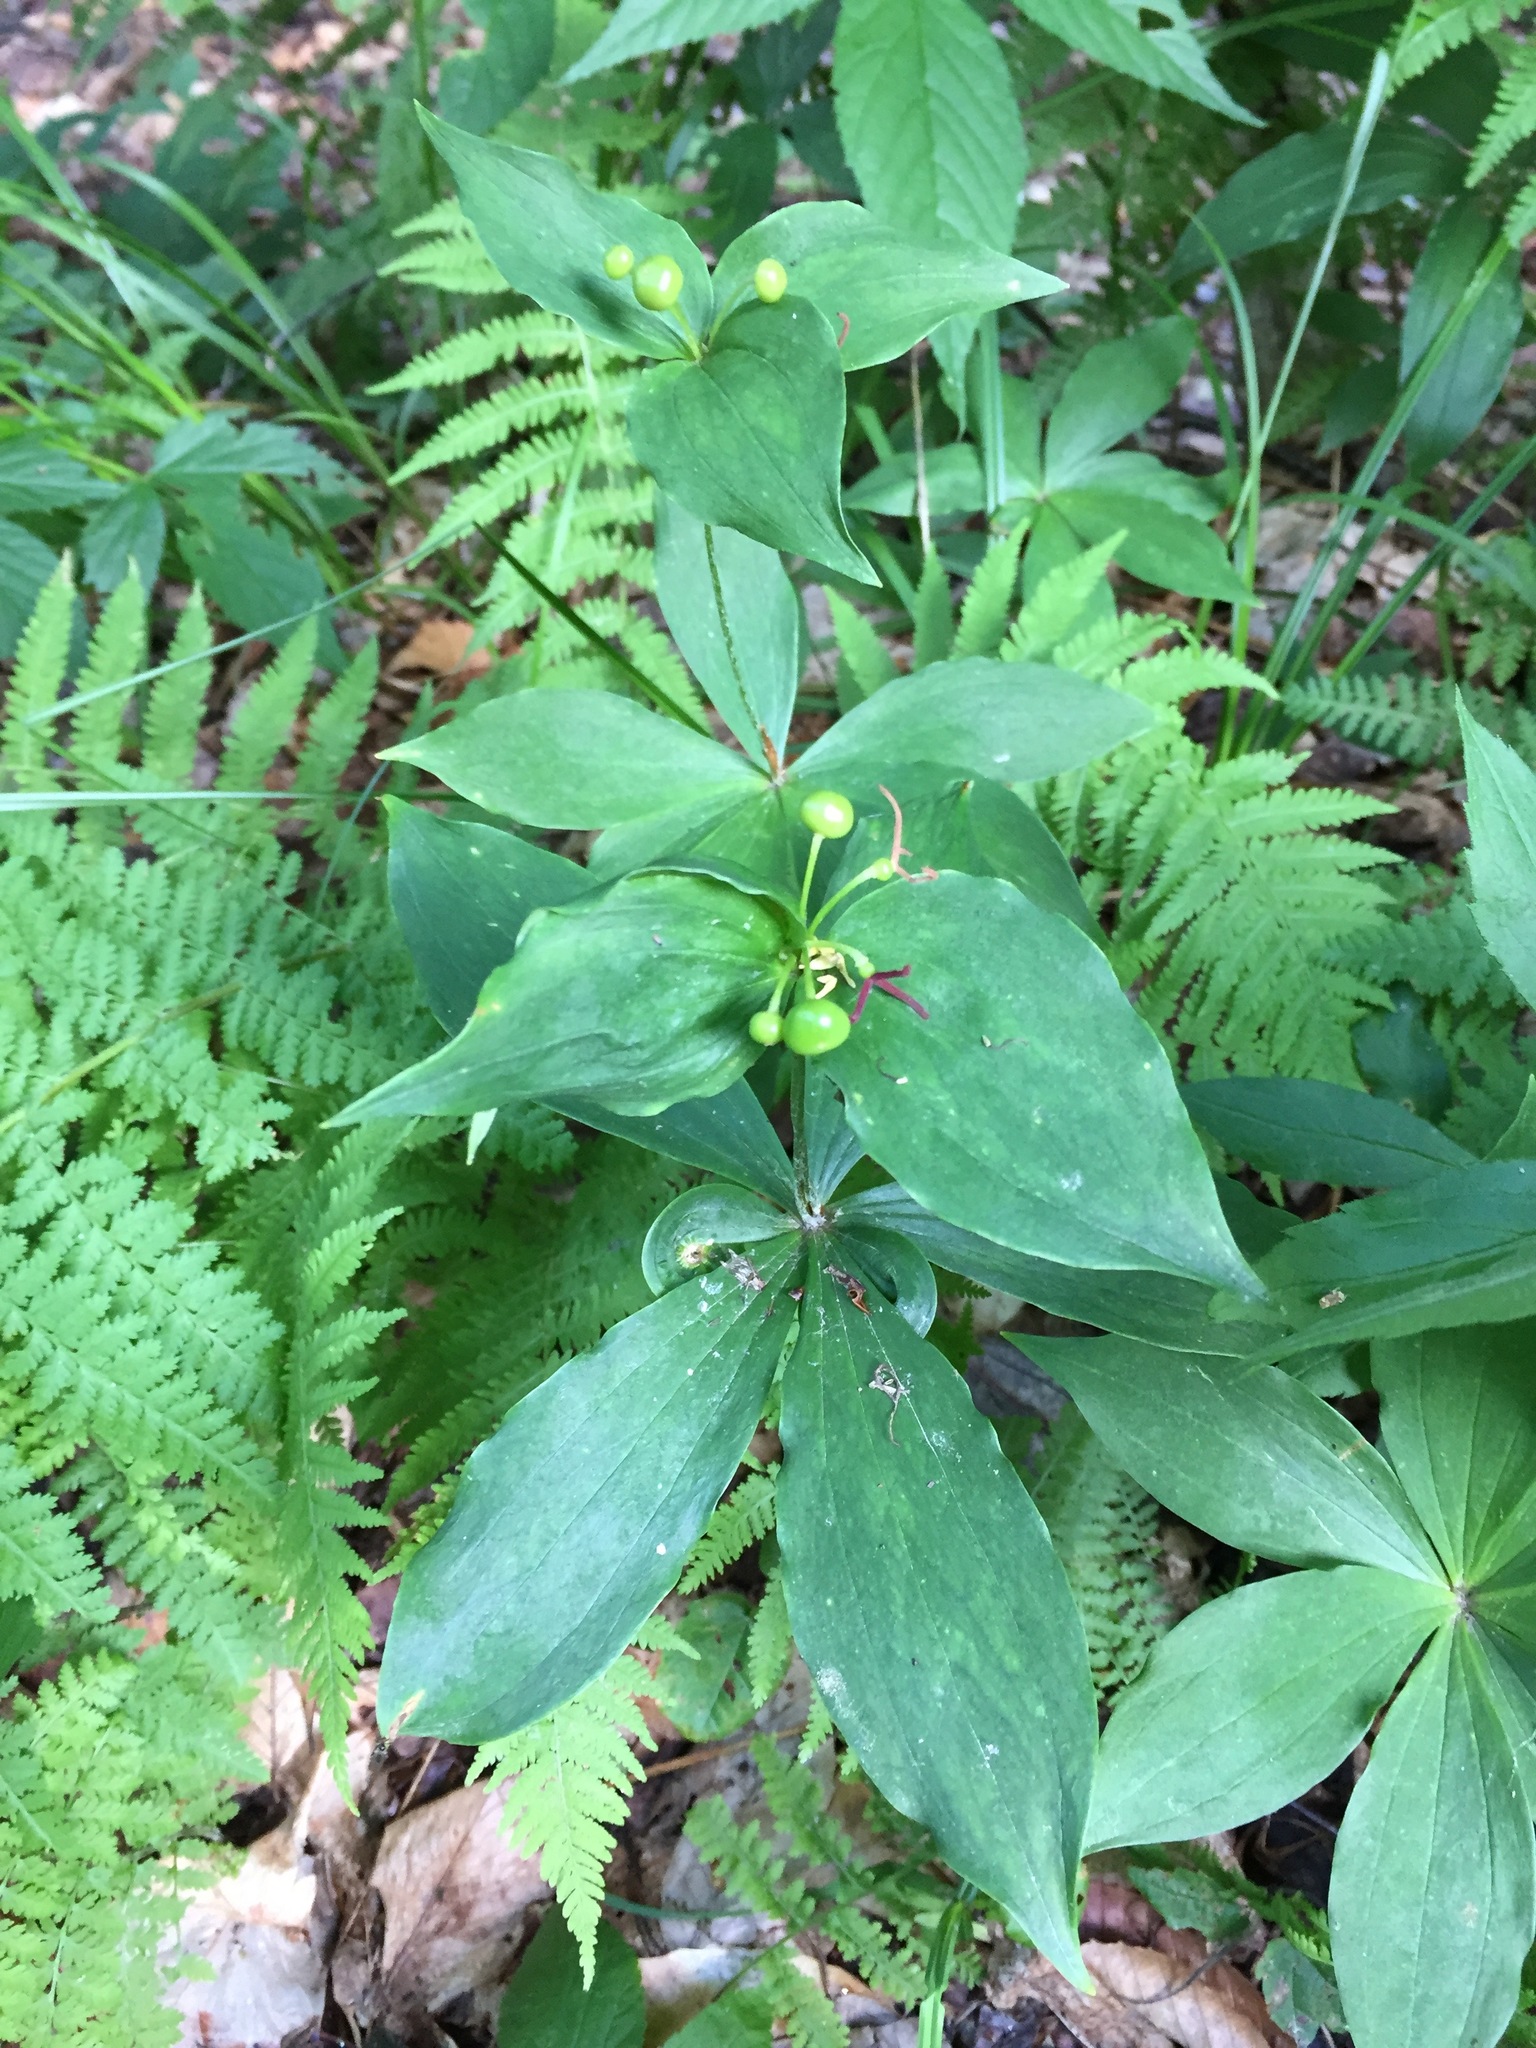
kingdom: Plantae
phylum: Tracheophyta
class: Liliopsida
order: Liliales
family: Liliaceae
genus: Medeola
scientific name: Medeola virginiana
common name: Indian cucumber-root
